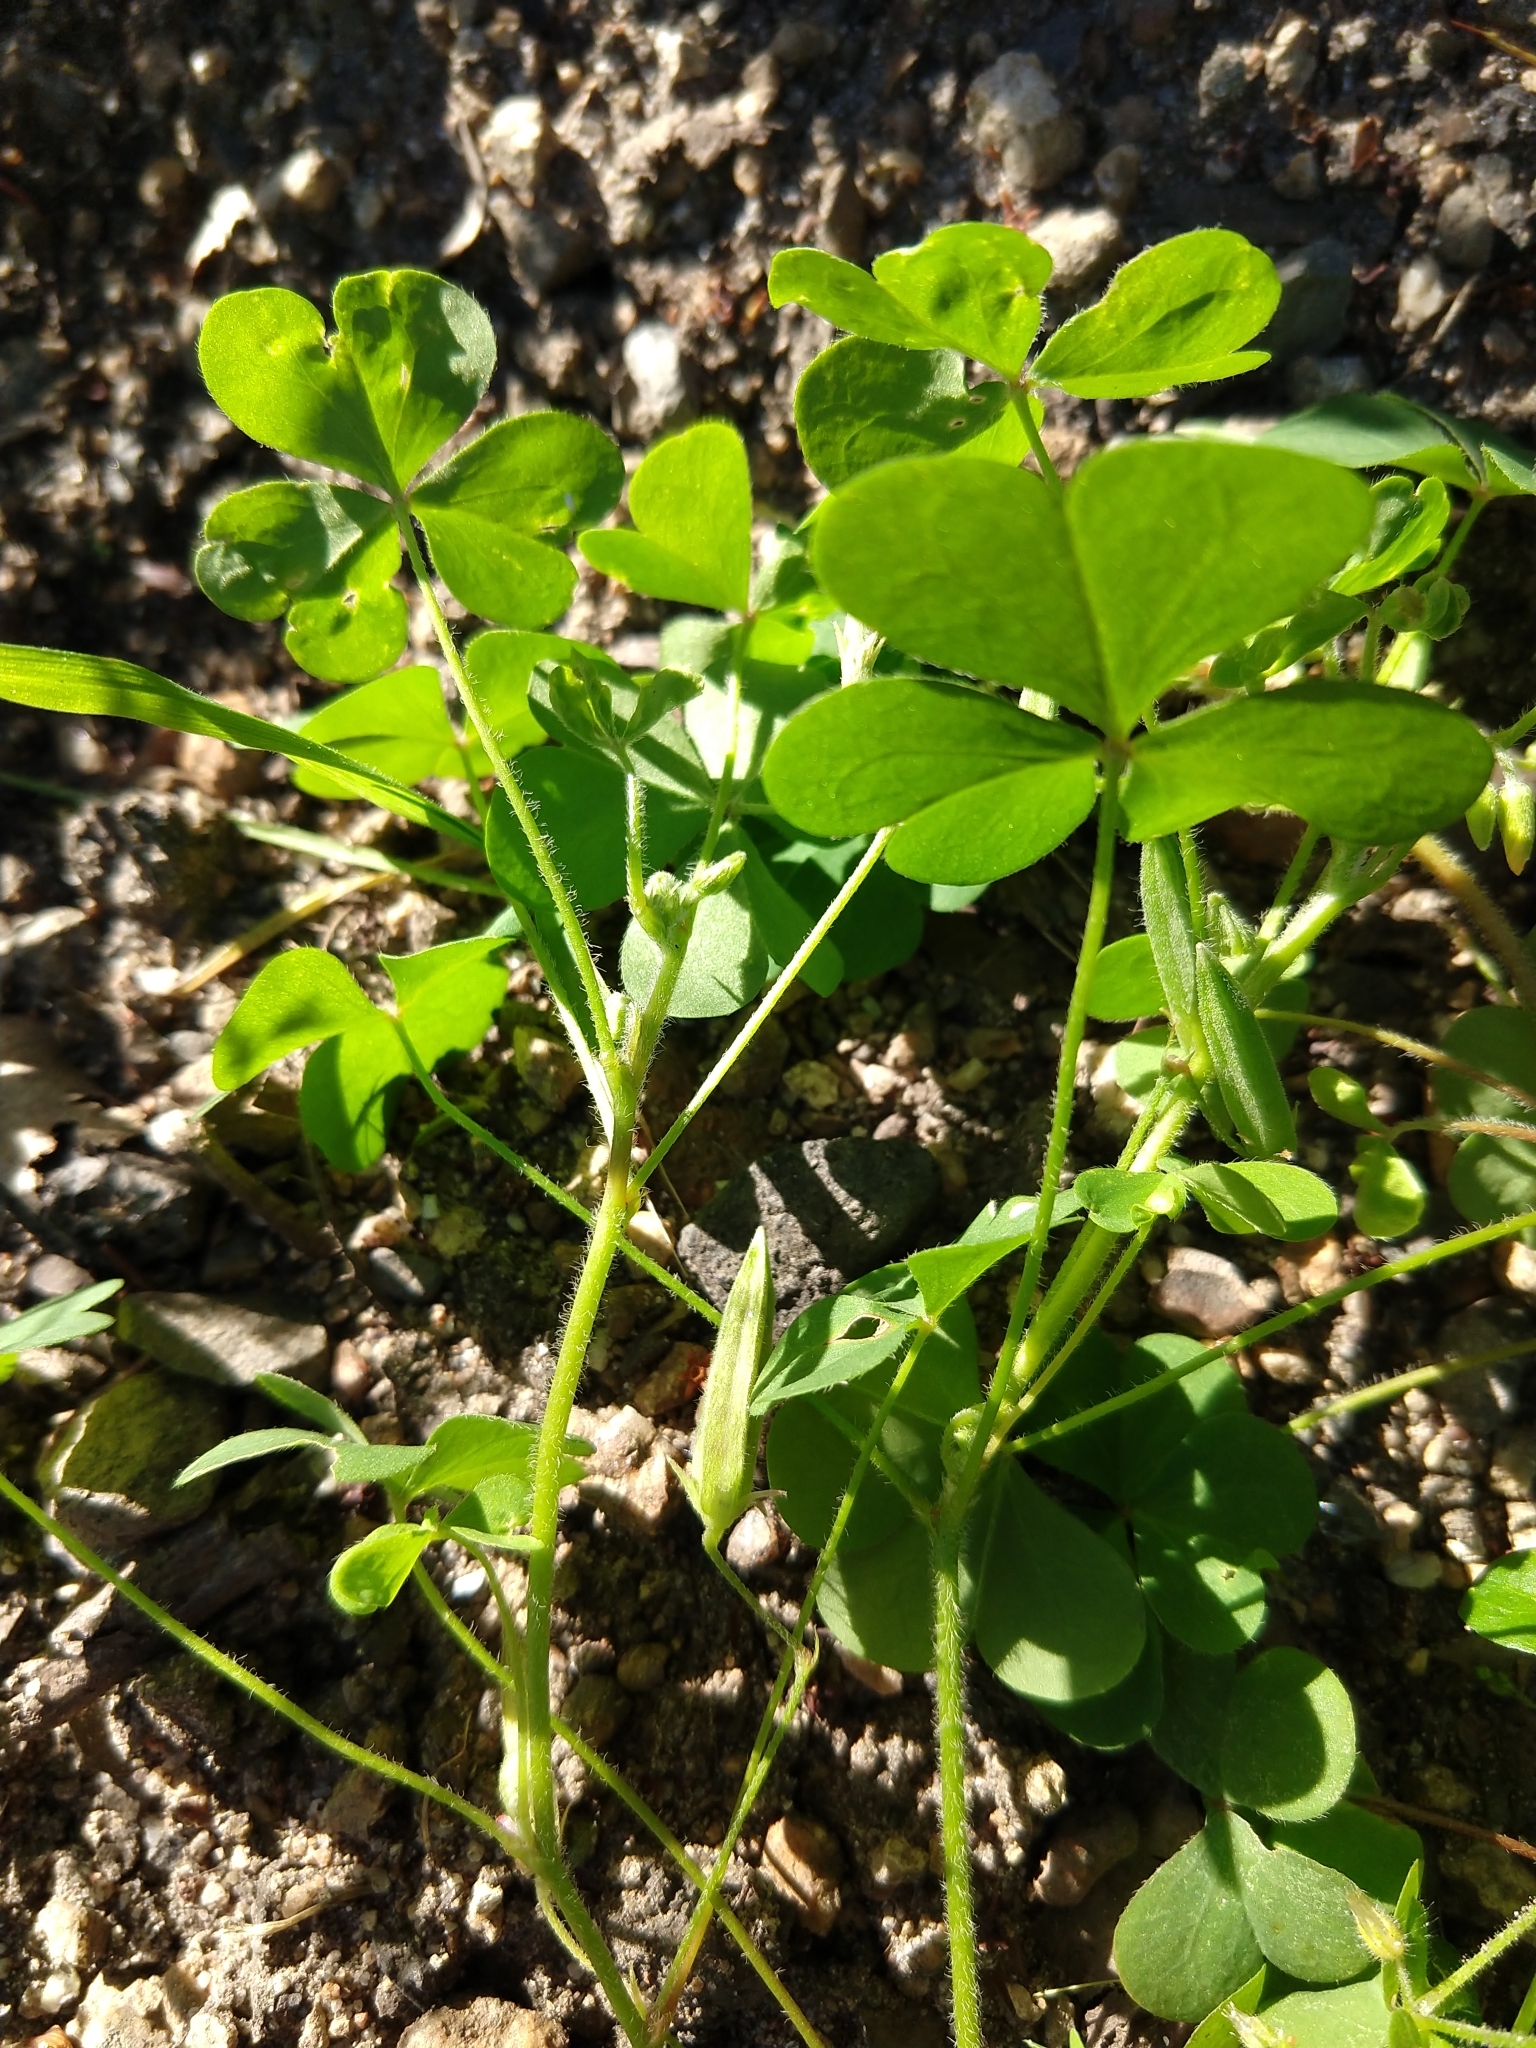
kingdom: Plantae
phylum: Tracheophyta
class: Magnoliopsida
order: Oxalidales
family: Oxalidaceae
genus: Oxalis
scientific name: Oxalis corniculata
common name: Procumbent yellow-sorrel
